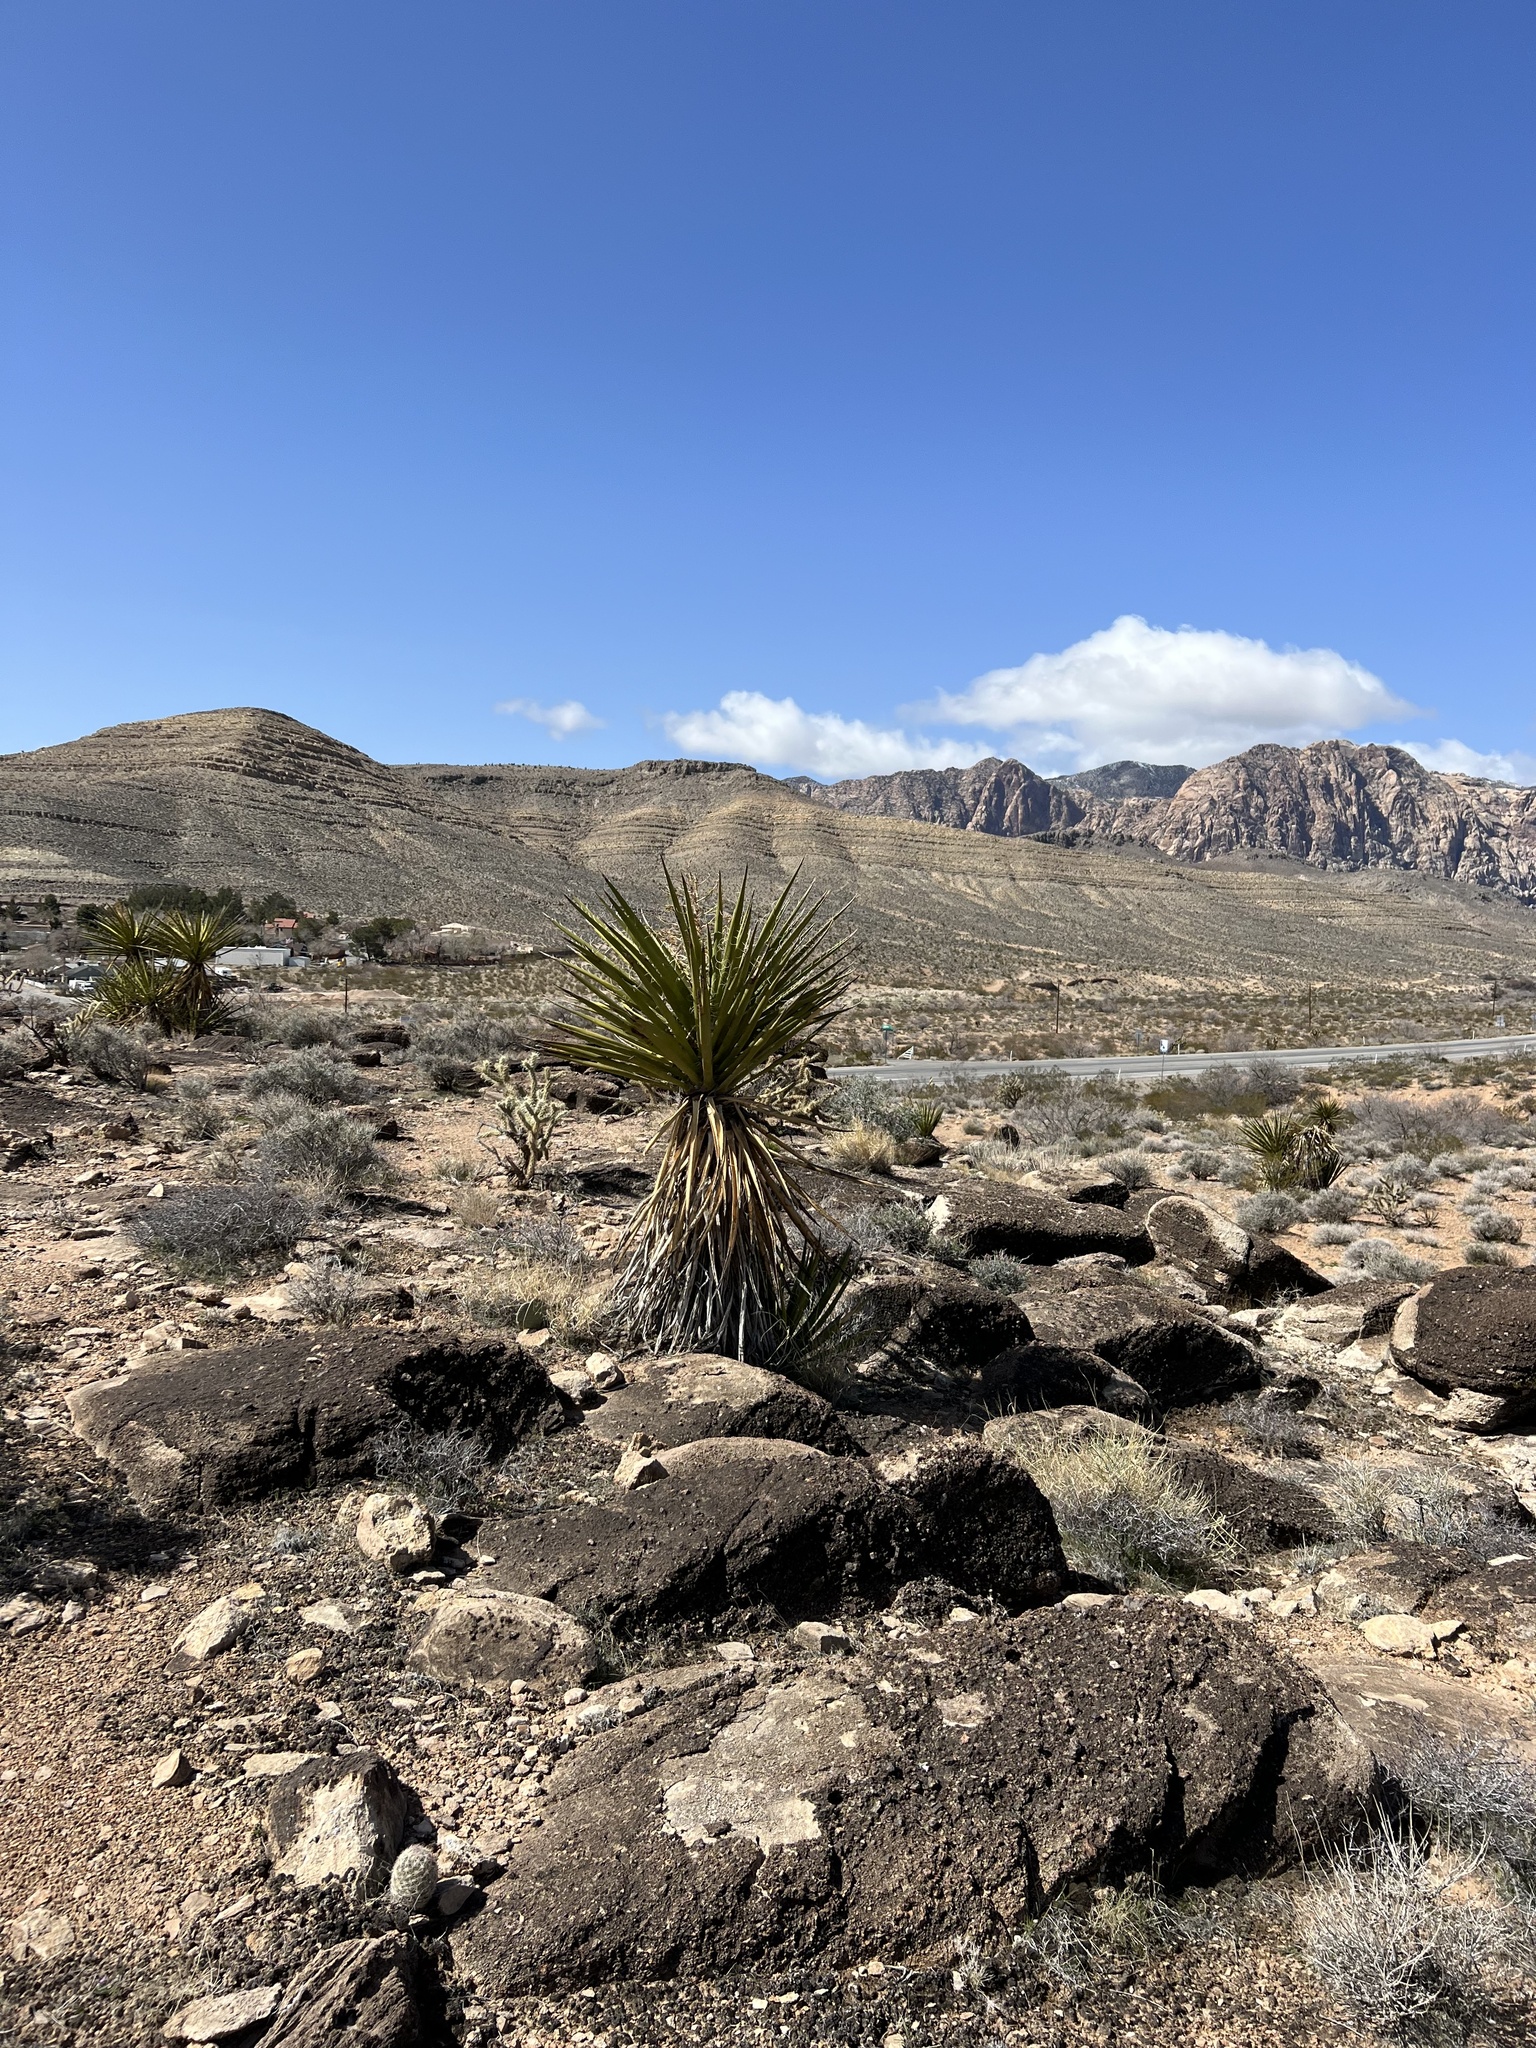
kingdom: Plantae
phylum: Tracheophyta
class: Liliopsida
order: Asparagales
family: Asparagaceae
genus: Yucca
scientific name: Yucca schidigera
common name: Mojave yucca
